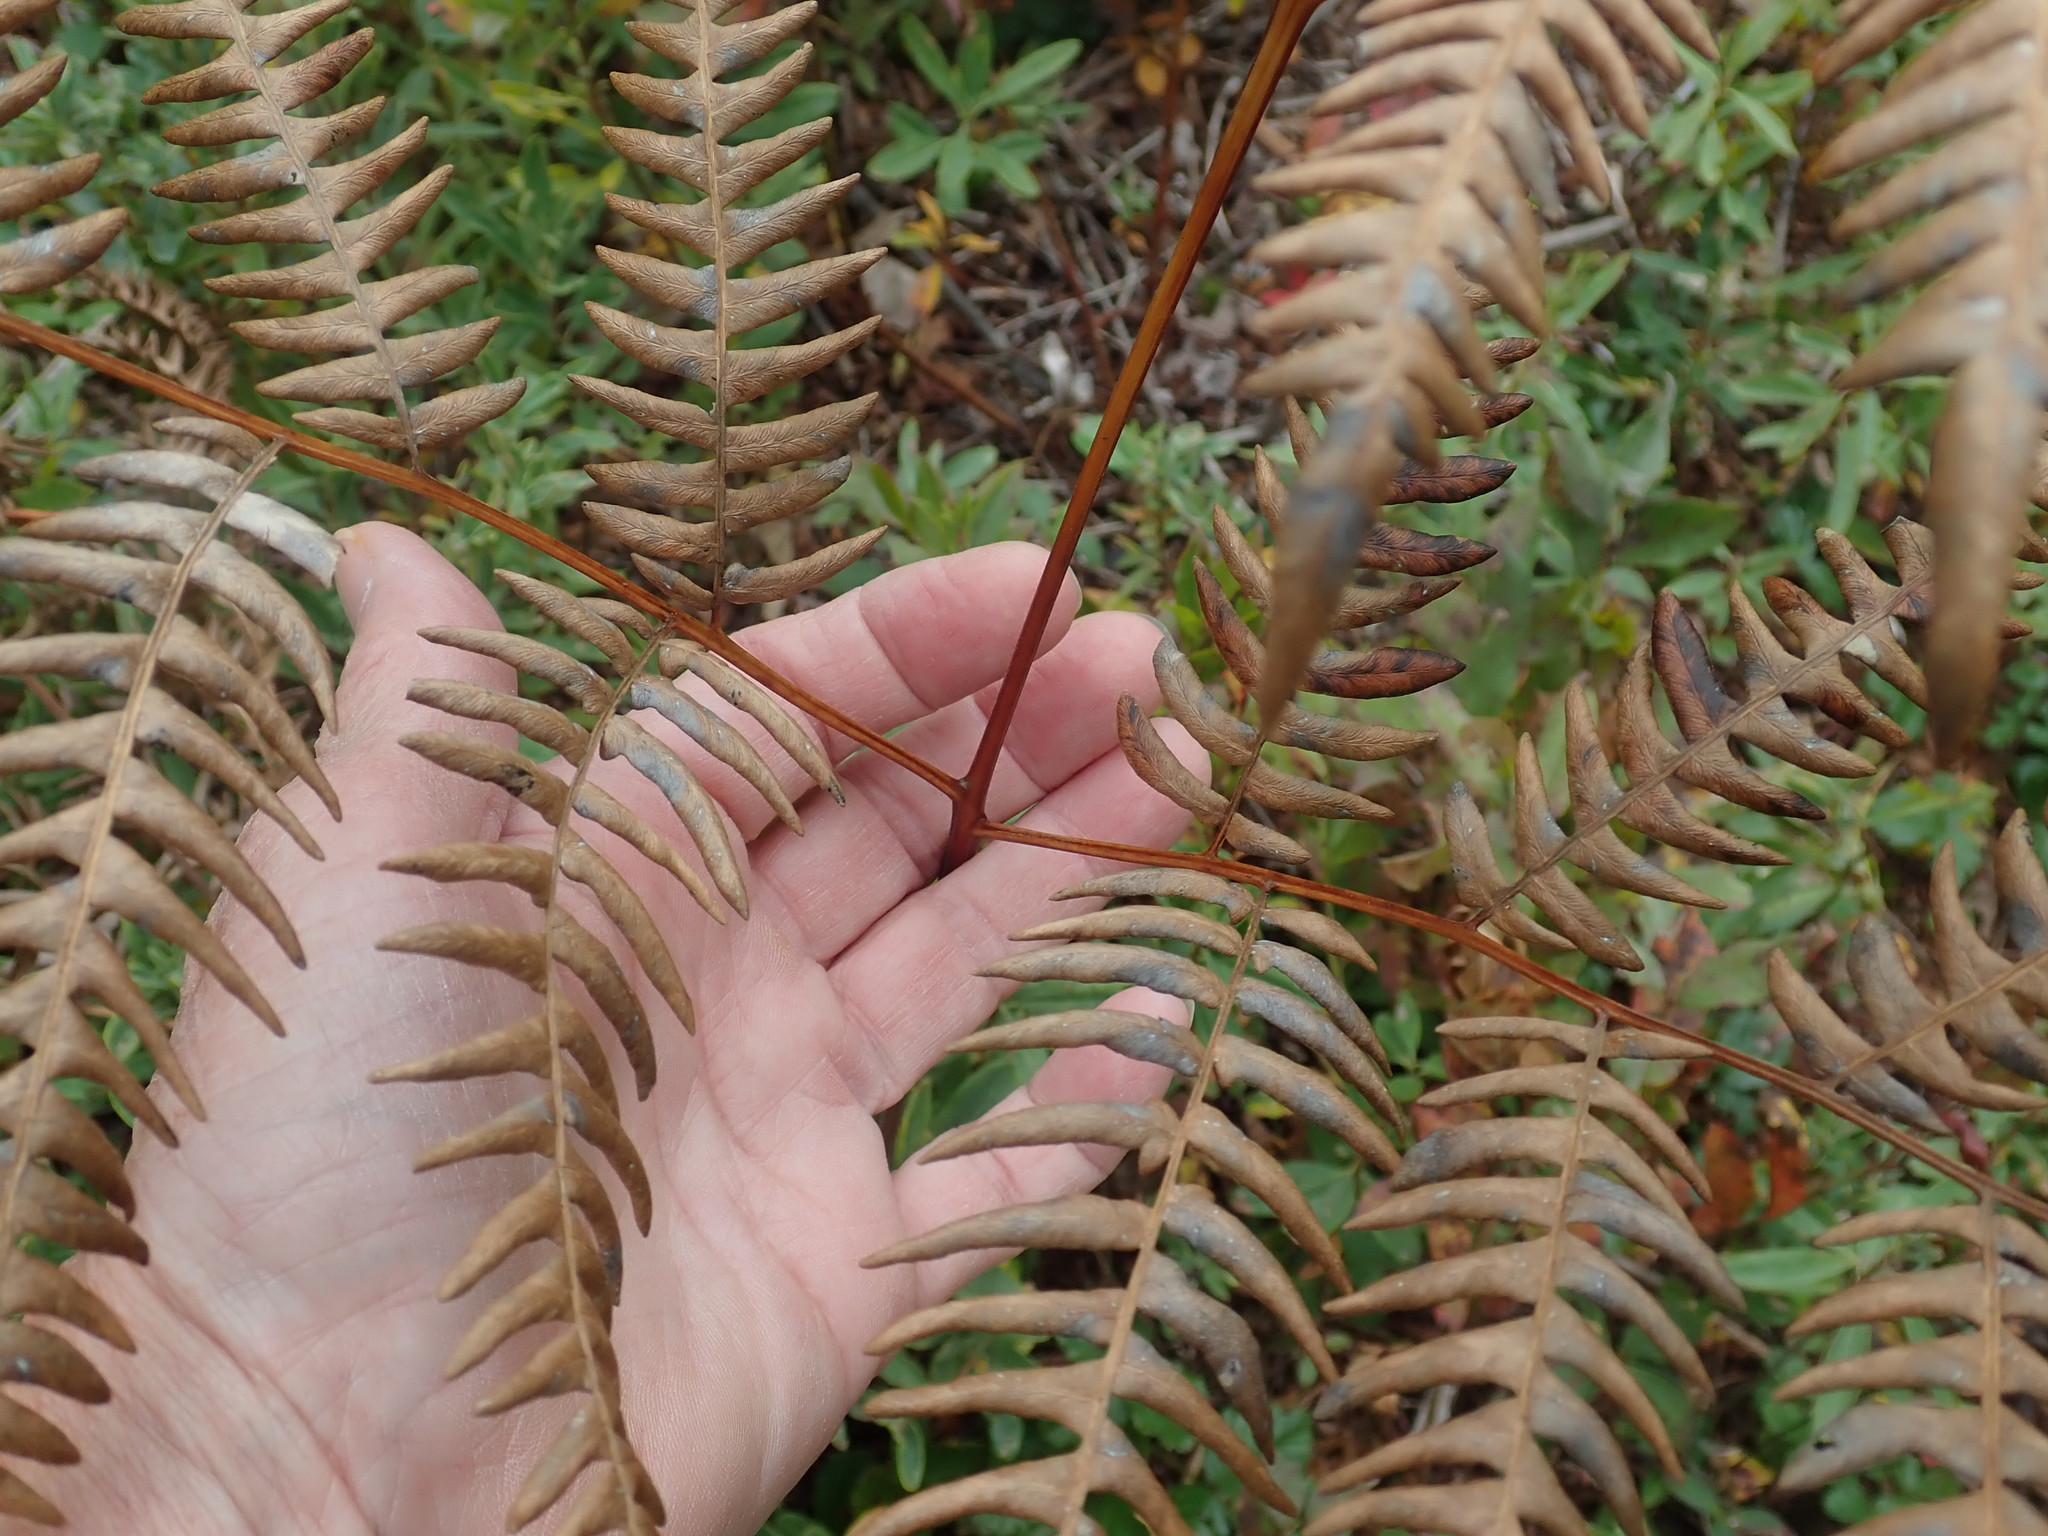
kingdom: Plantae
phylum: Tracheophyta
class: Polypodiopsida
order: Polypodiales
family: Dennstaedtiaceae
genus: Pteridium
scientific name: Pteridium aquilinum
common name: Bracken
